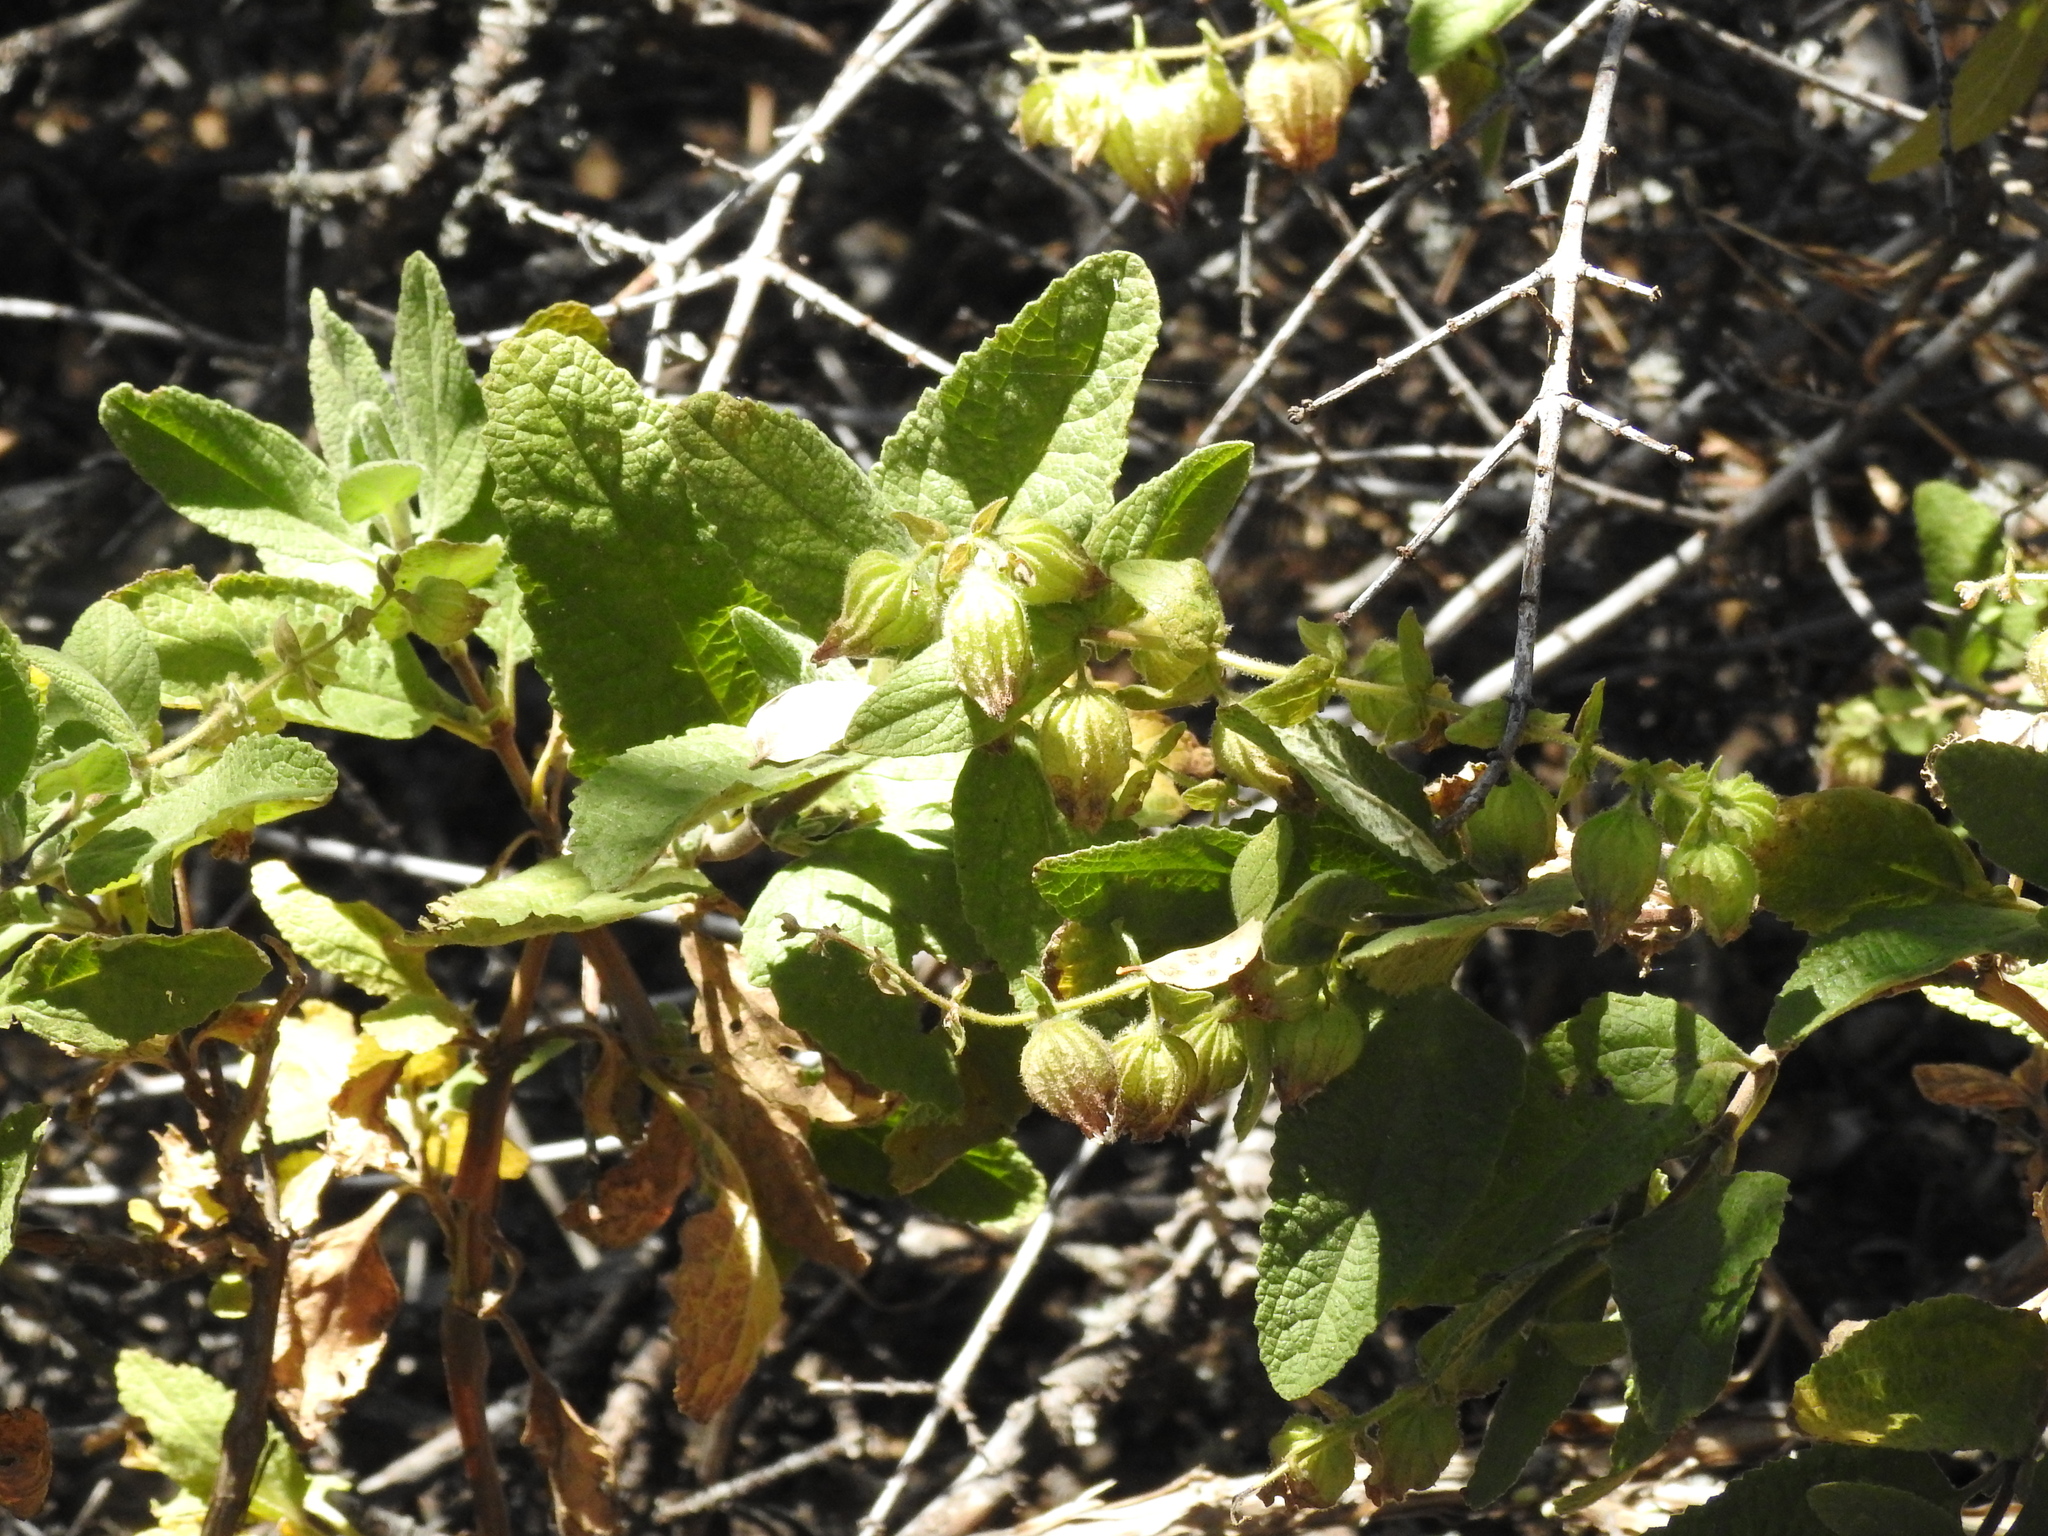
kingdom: Plantae
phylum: Tracheophyta
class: Magnoliopsida
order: Lamiales
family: Lamiaceae
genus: Lepechinia
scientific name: Lepechinia calycina
